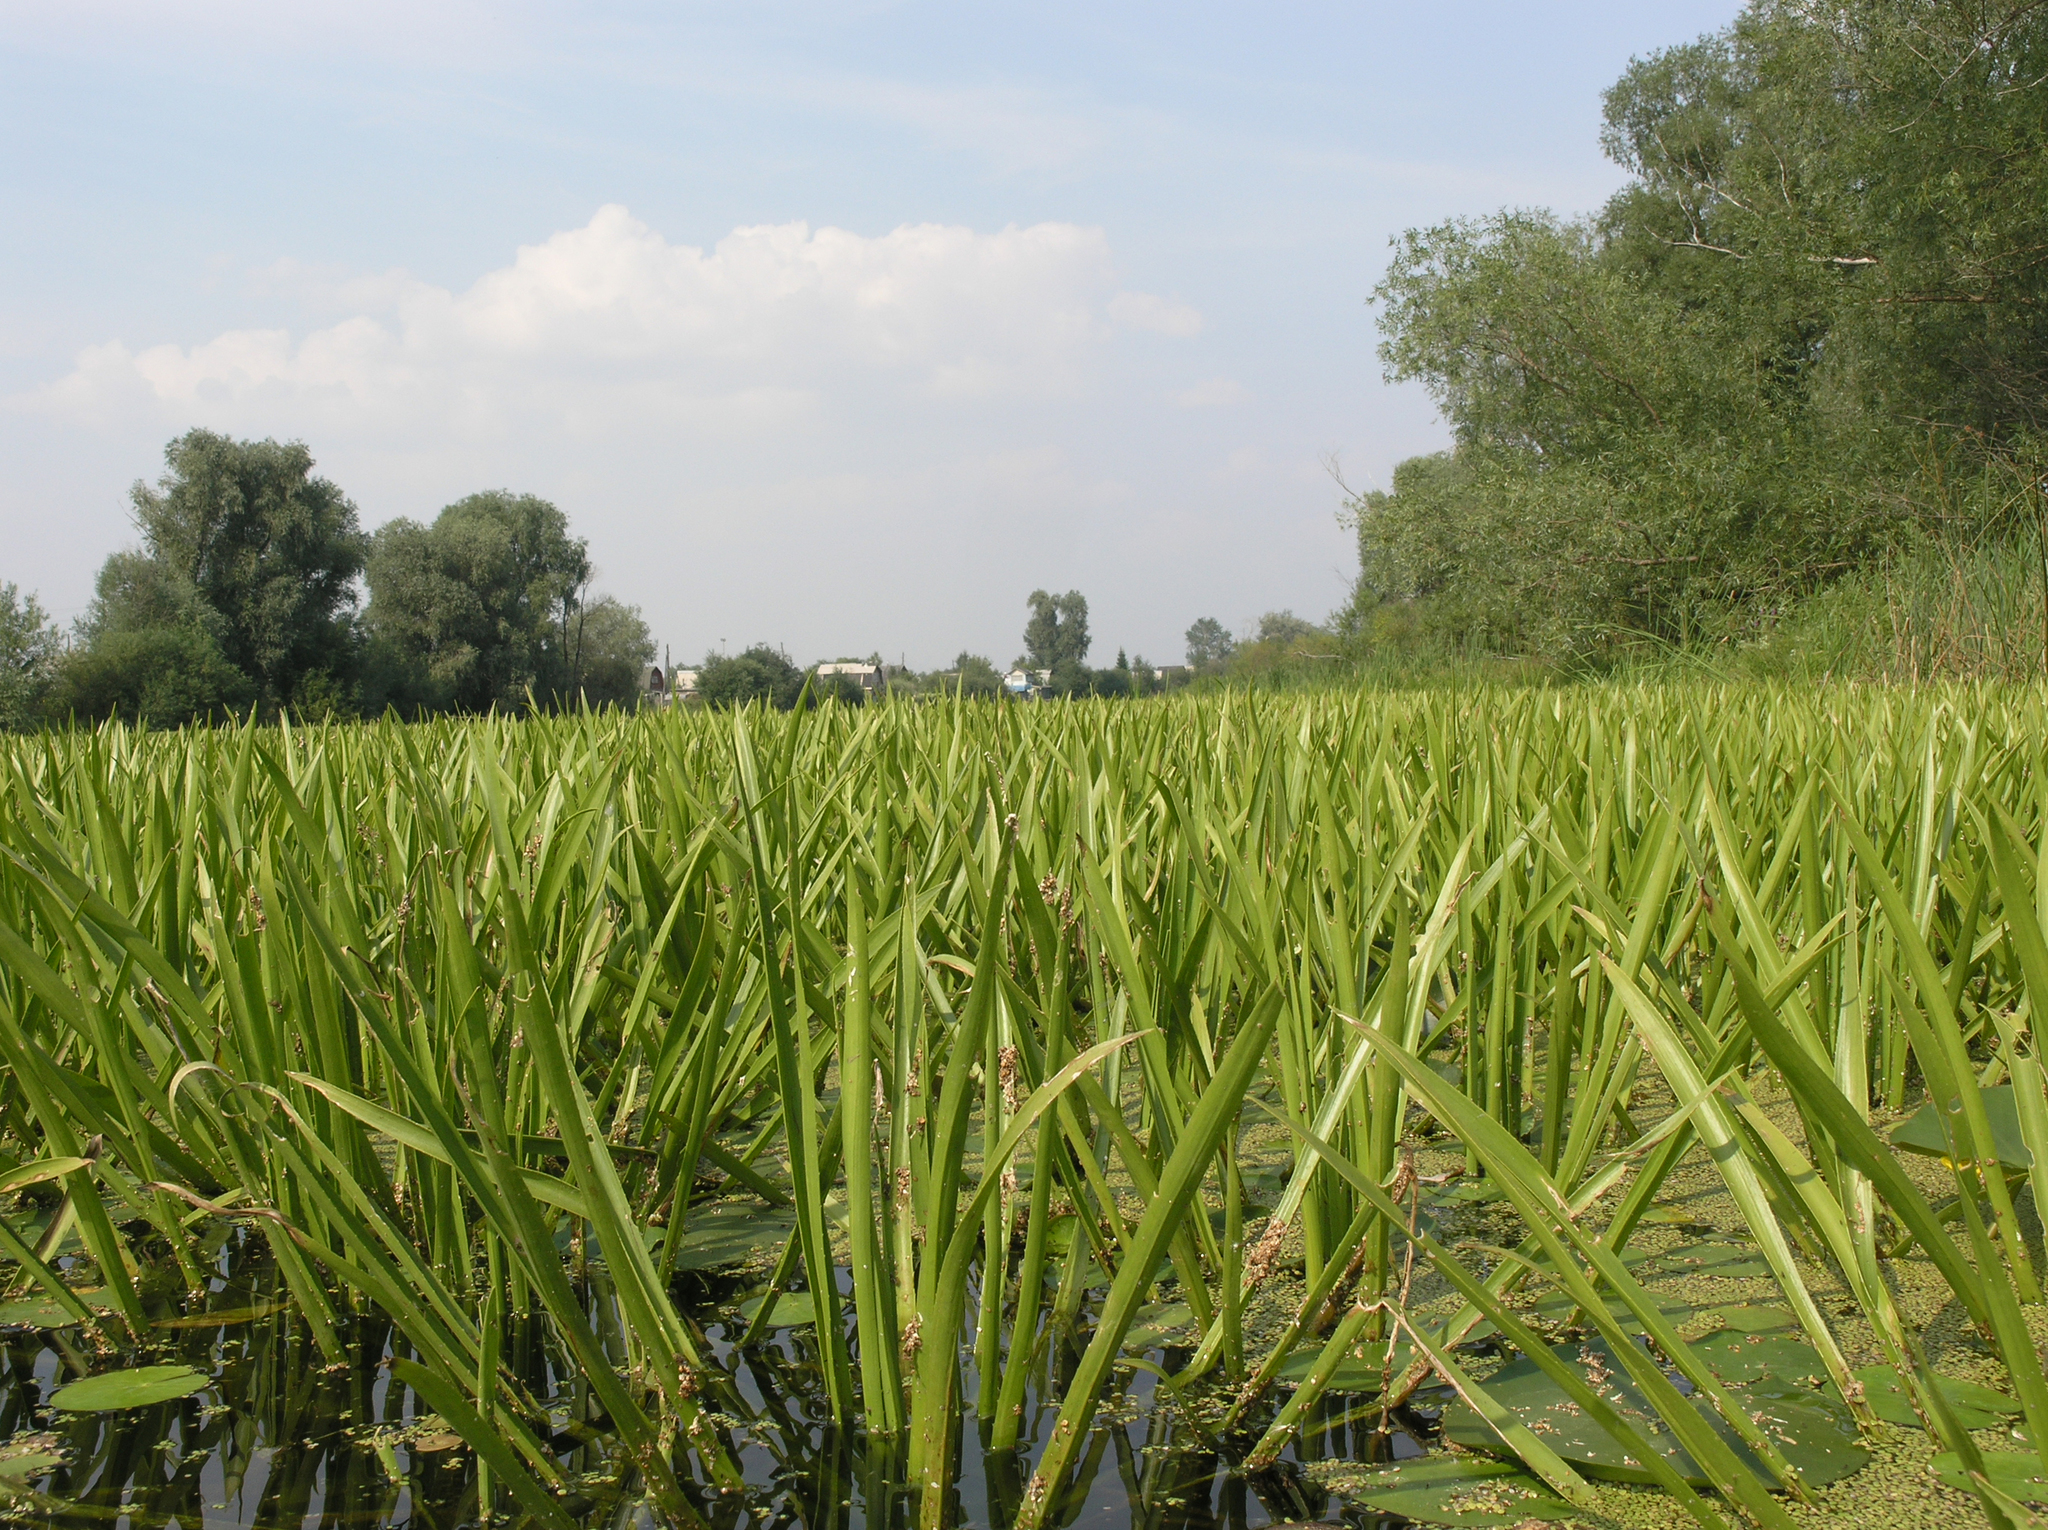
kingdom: Plantae
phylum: Tracheophyta
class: Liliopsida
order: Alismatales
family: Hydrocharitaceae
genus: Stratiotes
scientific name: Stratiotes aloides
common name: Water-soldier
